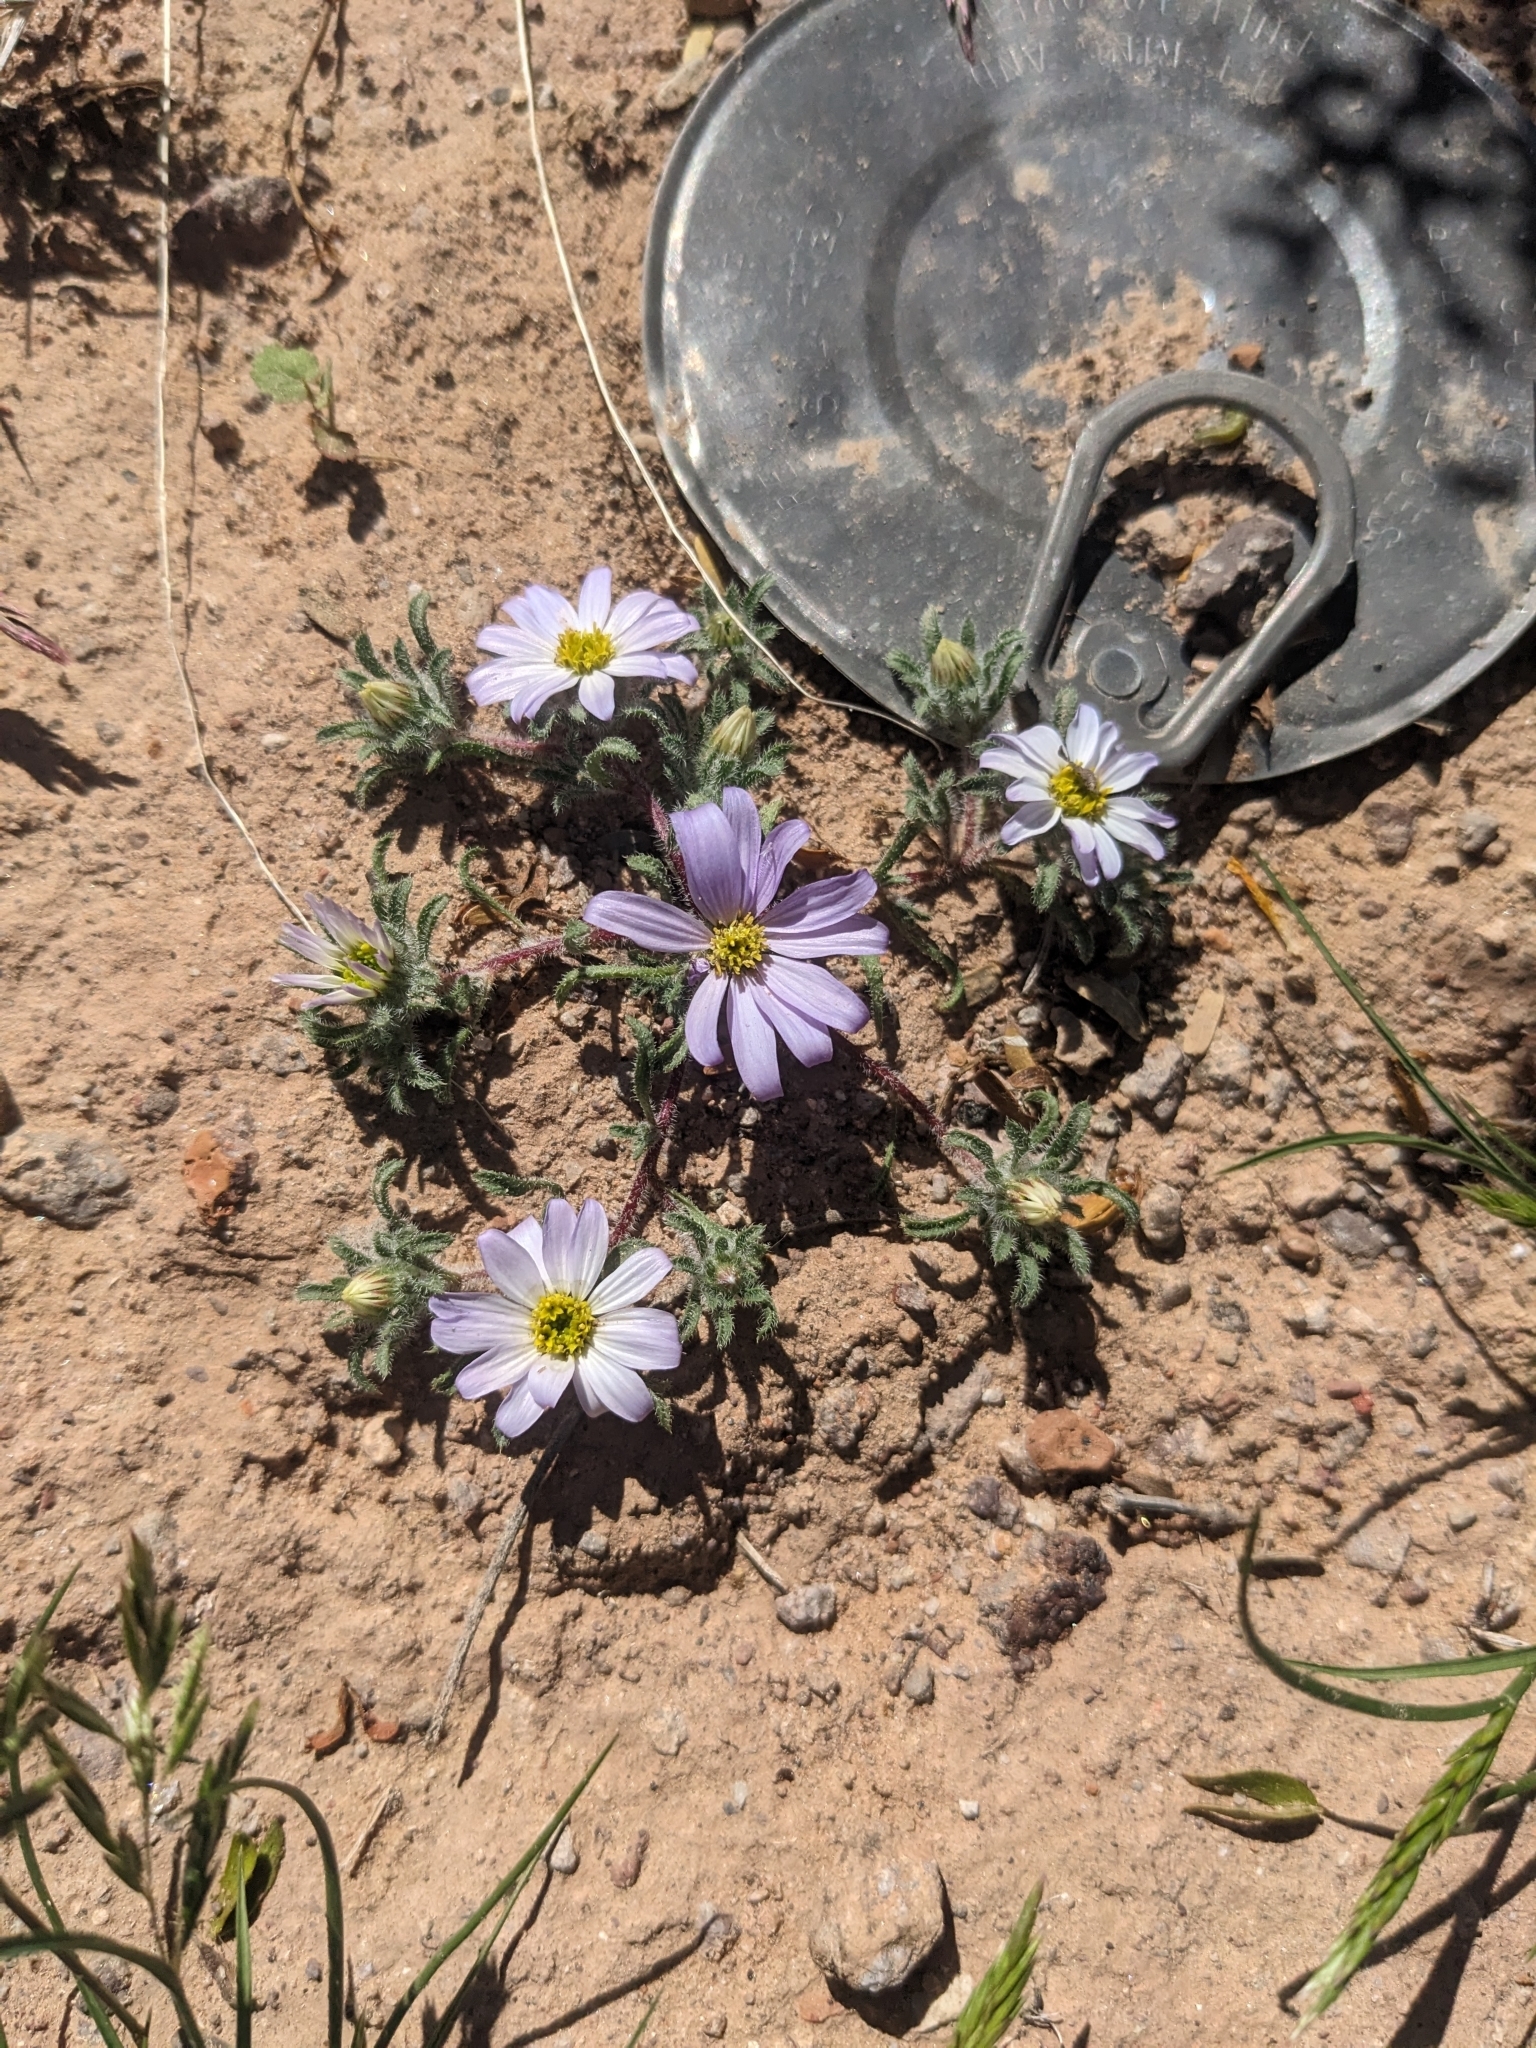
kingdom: Plantae
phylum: Tracheophyta
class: Magnoliopsida
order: Asterales
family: Asteraceae
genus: Monoptilon
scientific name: Monoptilon bellioides
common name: Bristly desertstar
